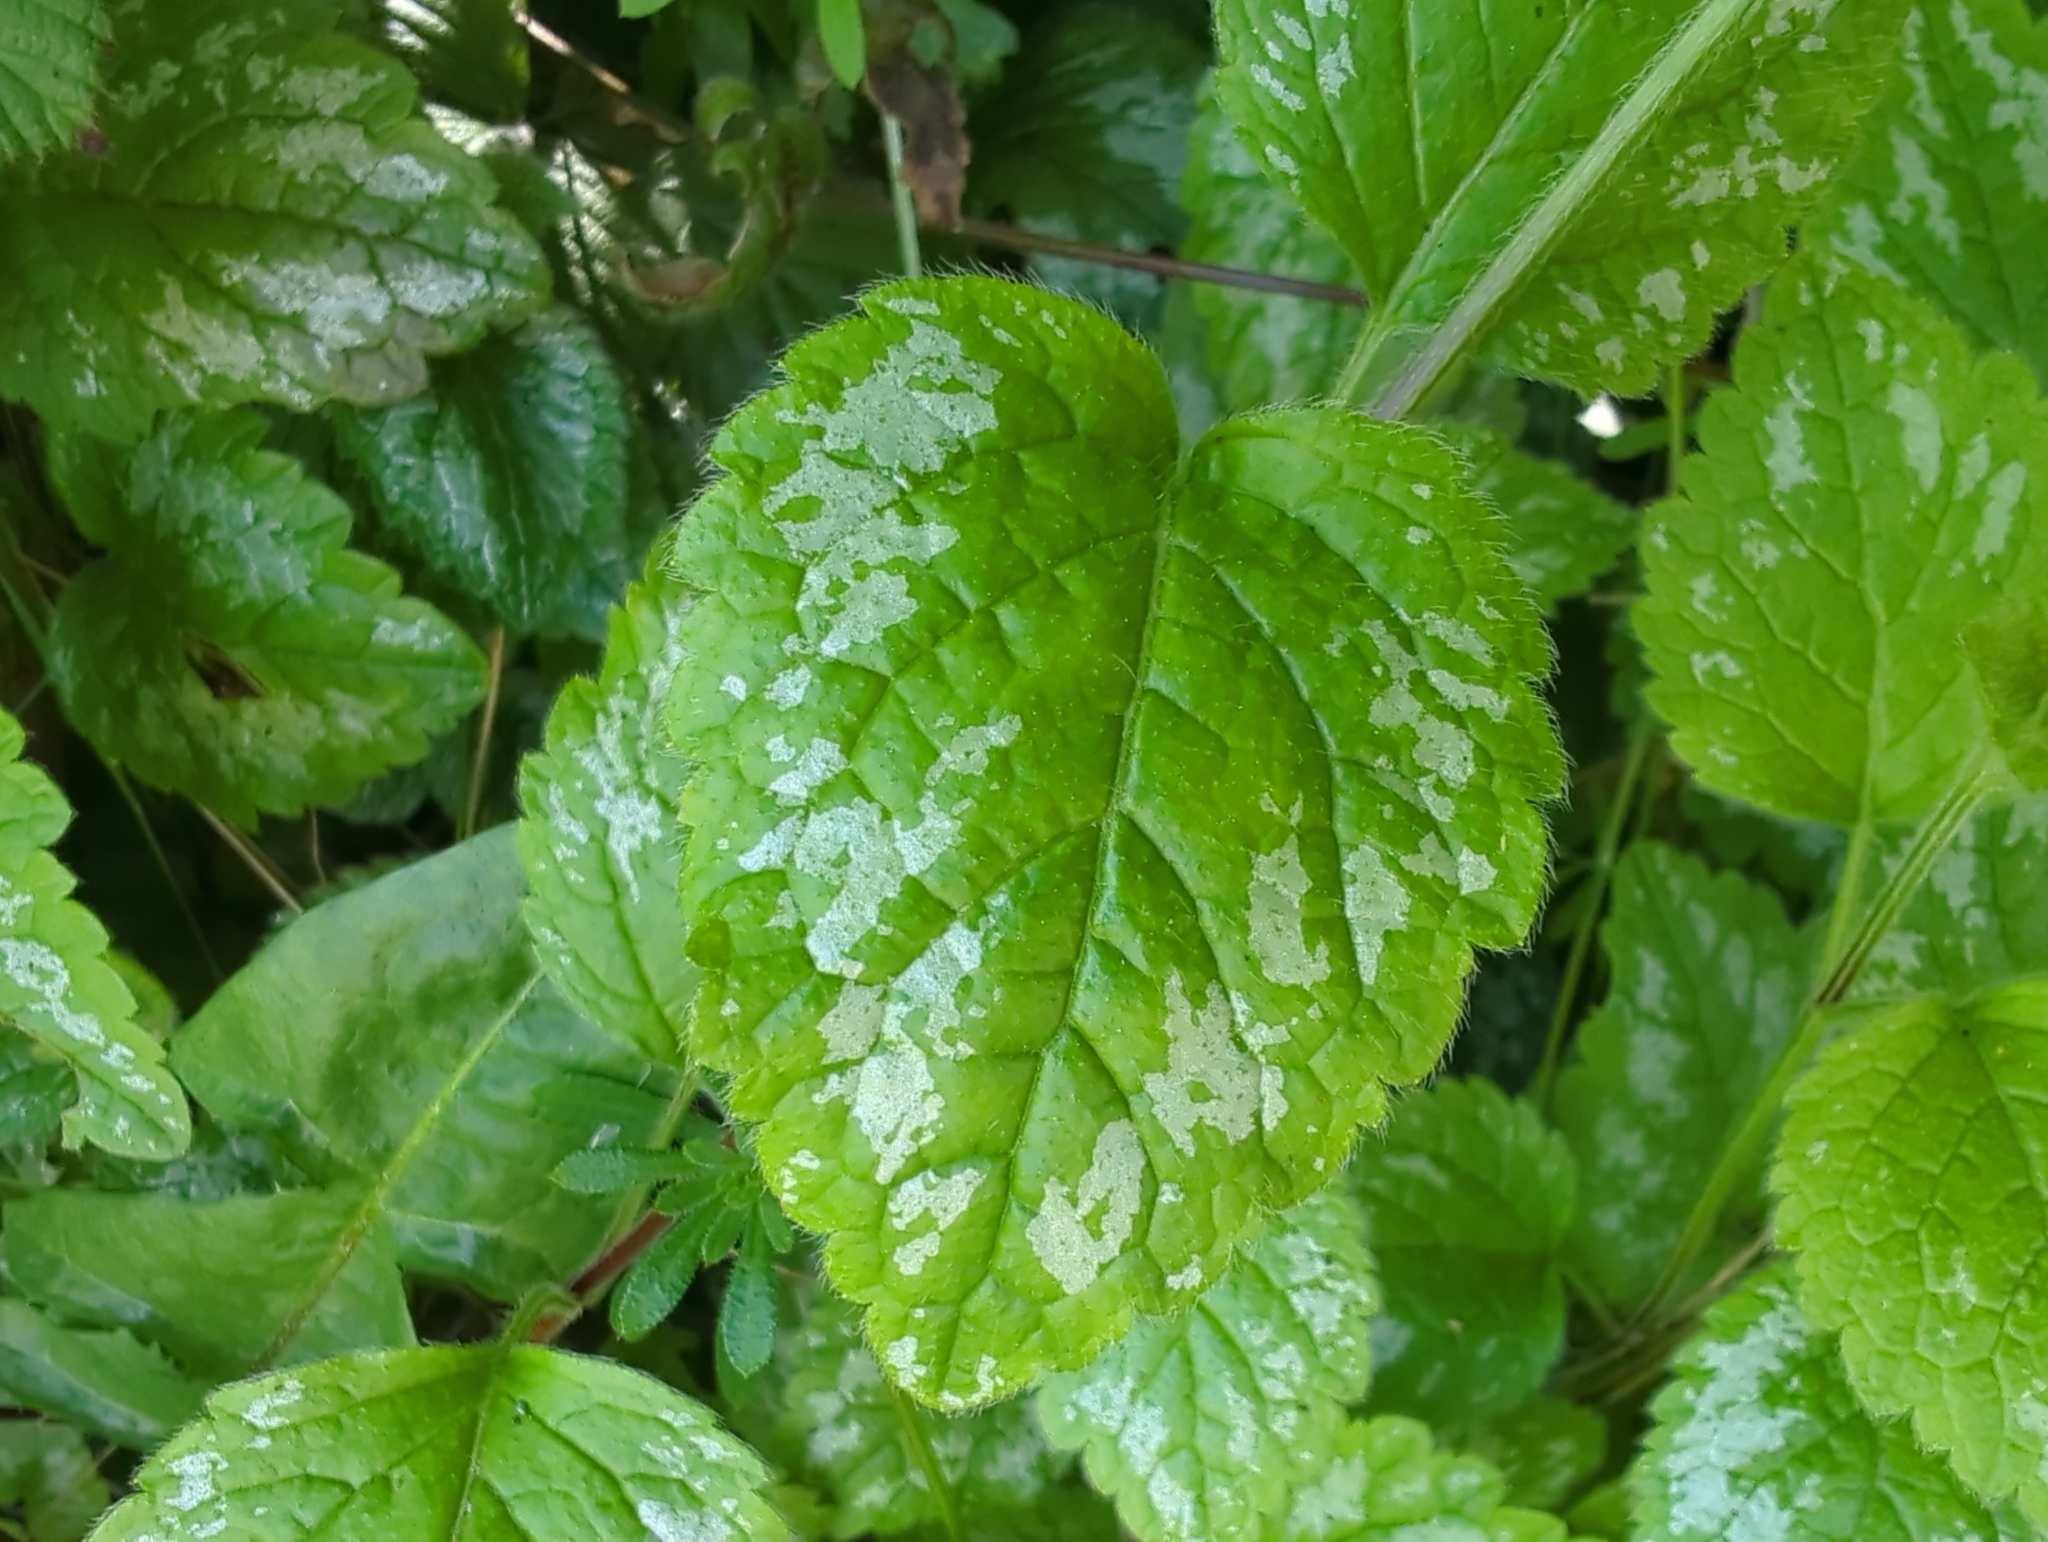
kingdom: Plantae
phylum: Tracheophyta
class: Magnoliopsida
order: Lamiales
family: Lamiaceae
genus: Lamium
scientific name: Lamium galeobdolon
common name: Yellow archangel
